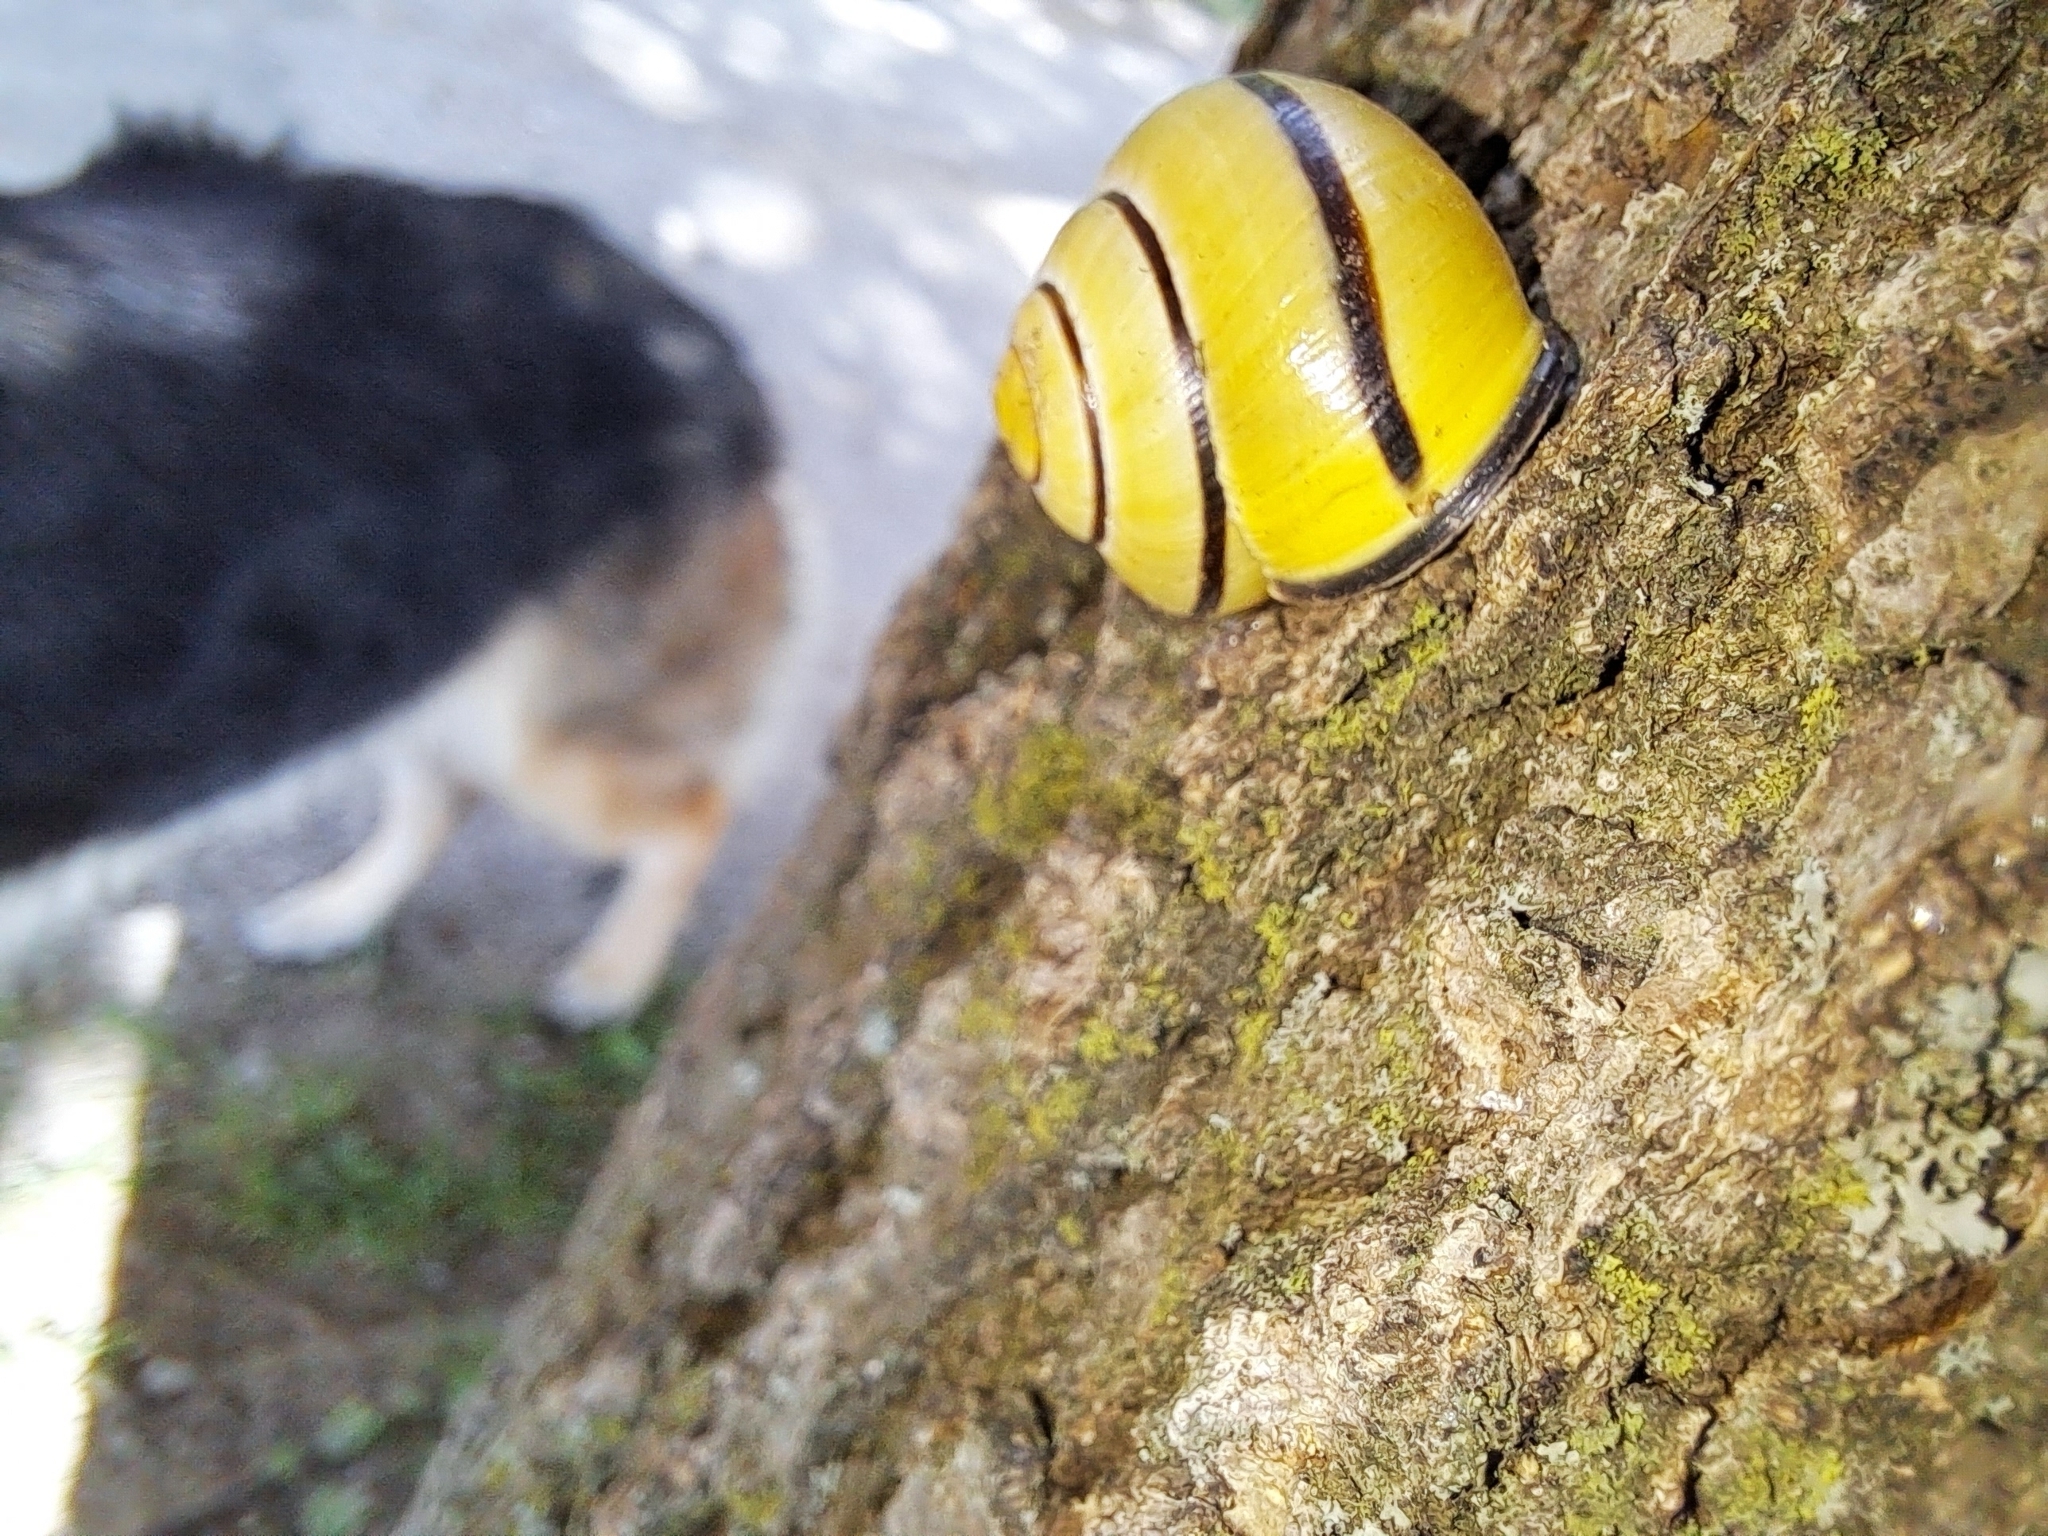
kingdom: Animalia
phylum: Mollusca
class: Gastropoda
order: Stylommatophora
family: Helicidae
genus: Cepaea
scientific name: Cepaea nemoralis
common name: Grovesnail
